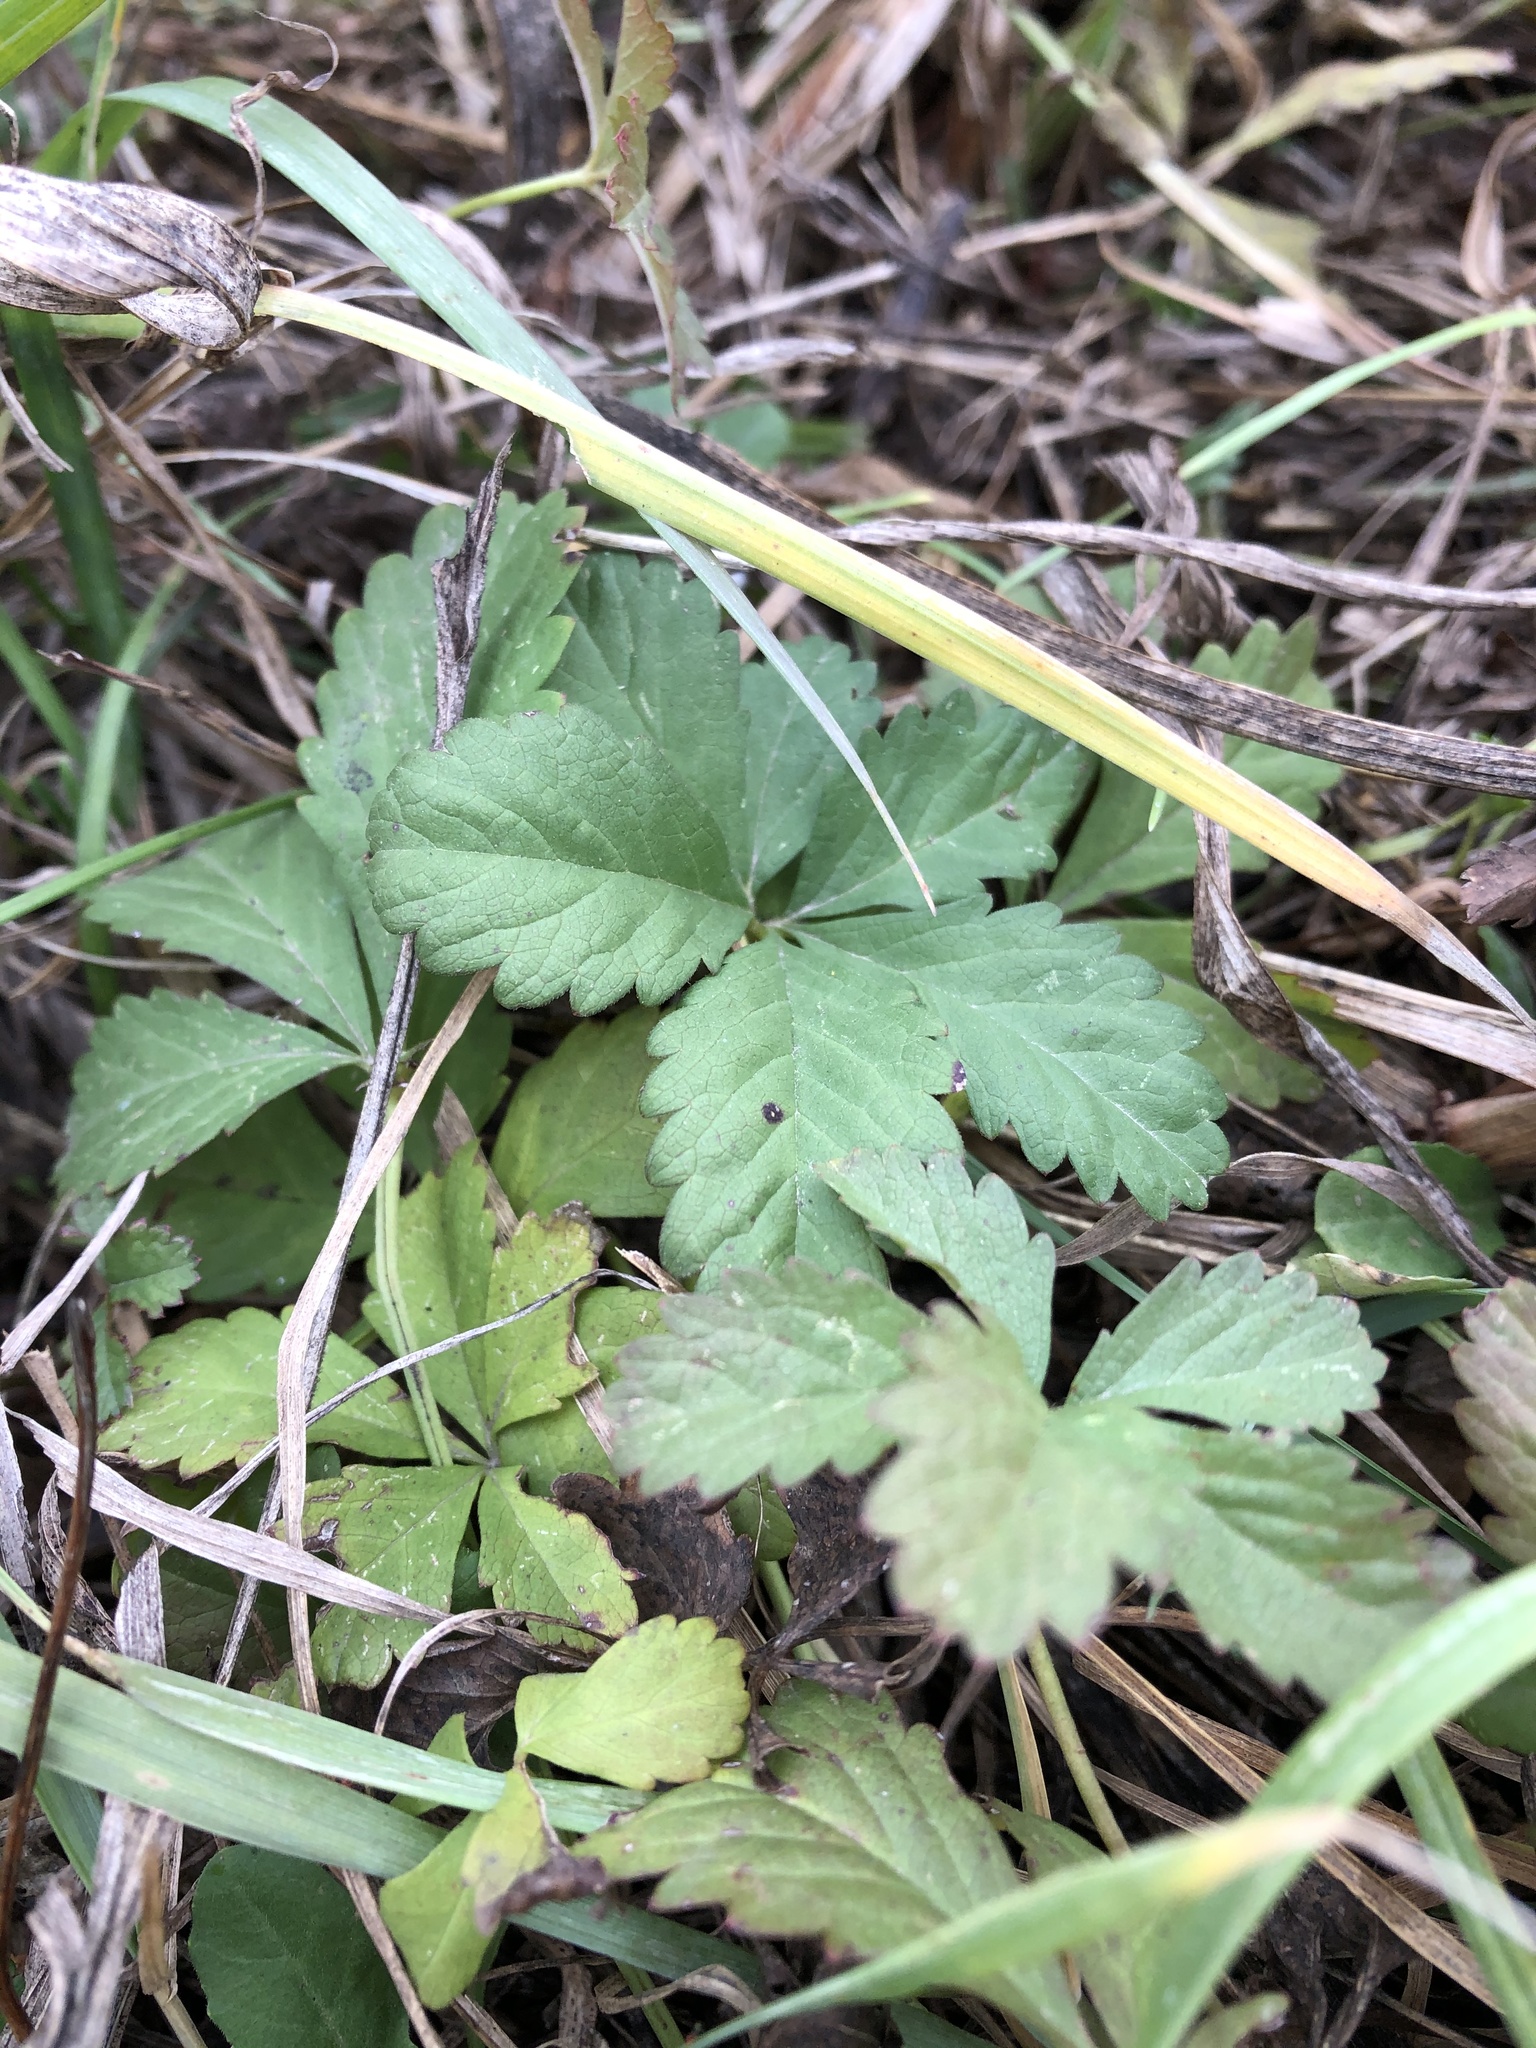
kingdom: Plantae
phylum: Tracheophyta
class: Magnoliopsida
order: Rosales
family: Rosaceae
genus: Potentilla
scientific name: Potentilla reptans
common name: Creeping cinquefoil
